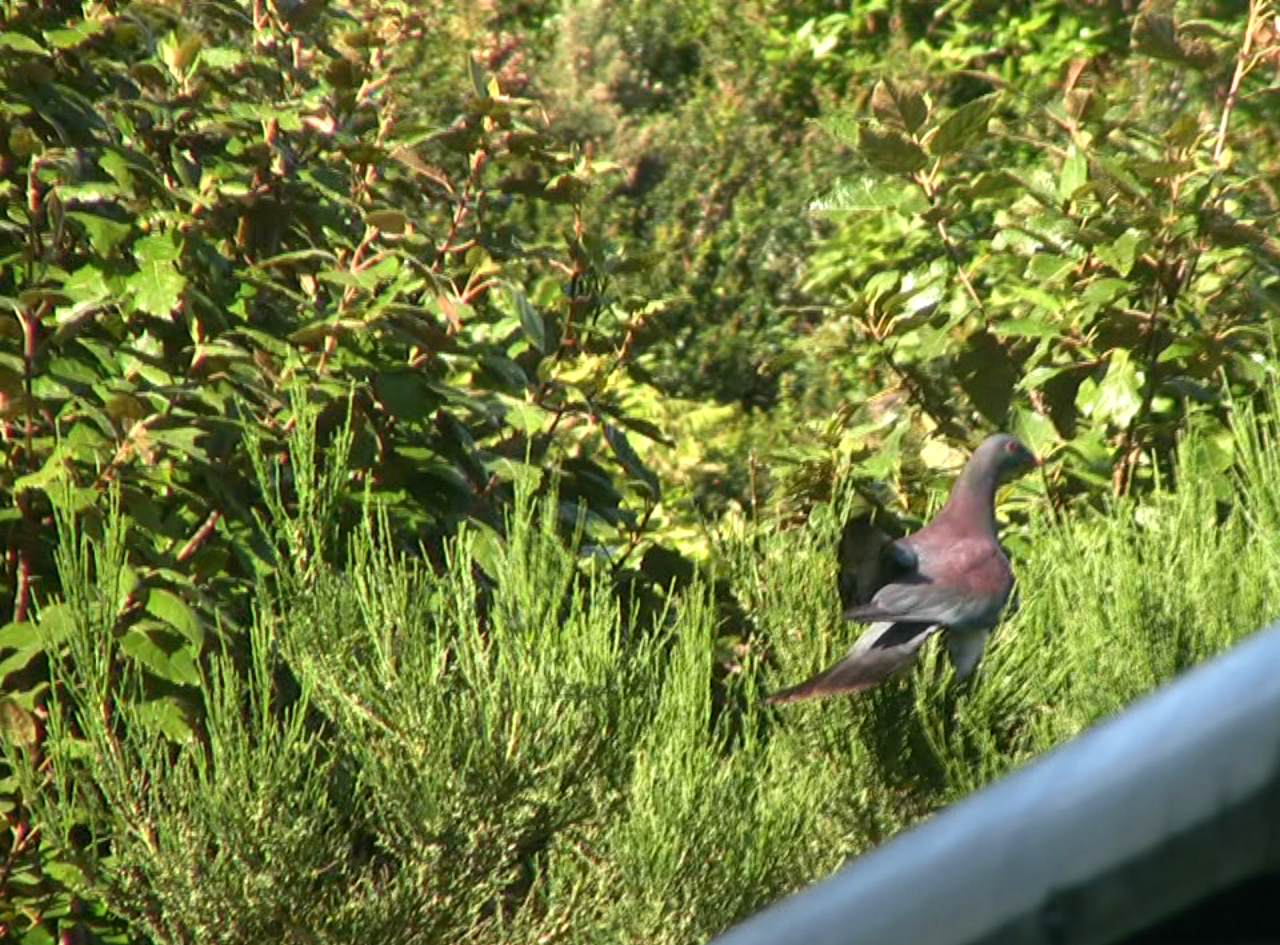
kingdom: Animalia
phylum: Chordata
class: Aves
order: Columbiformes
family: Columbidae
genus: Hemiphaga
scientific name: Hemiphaga novaeseelandiae
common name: New zealand pigeon
